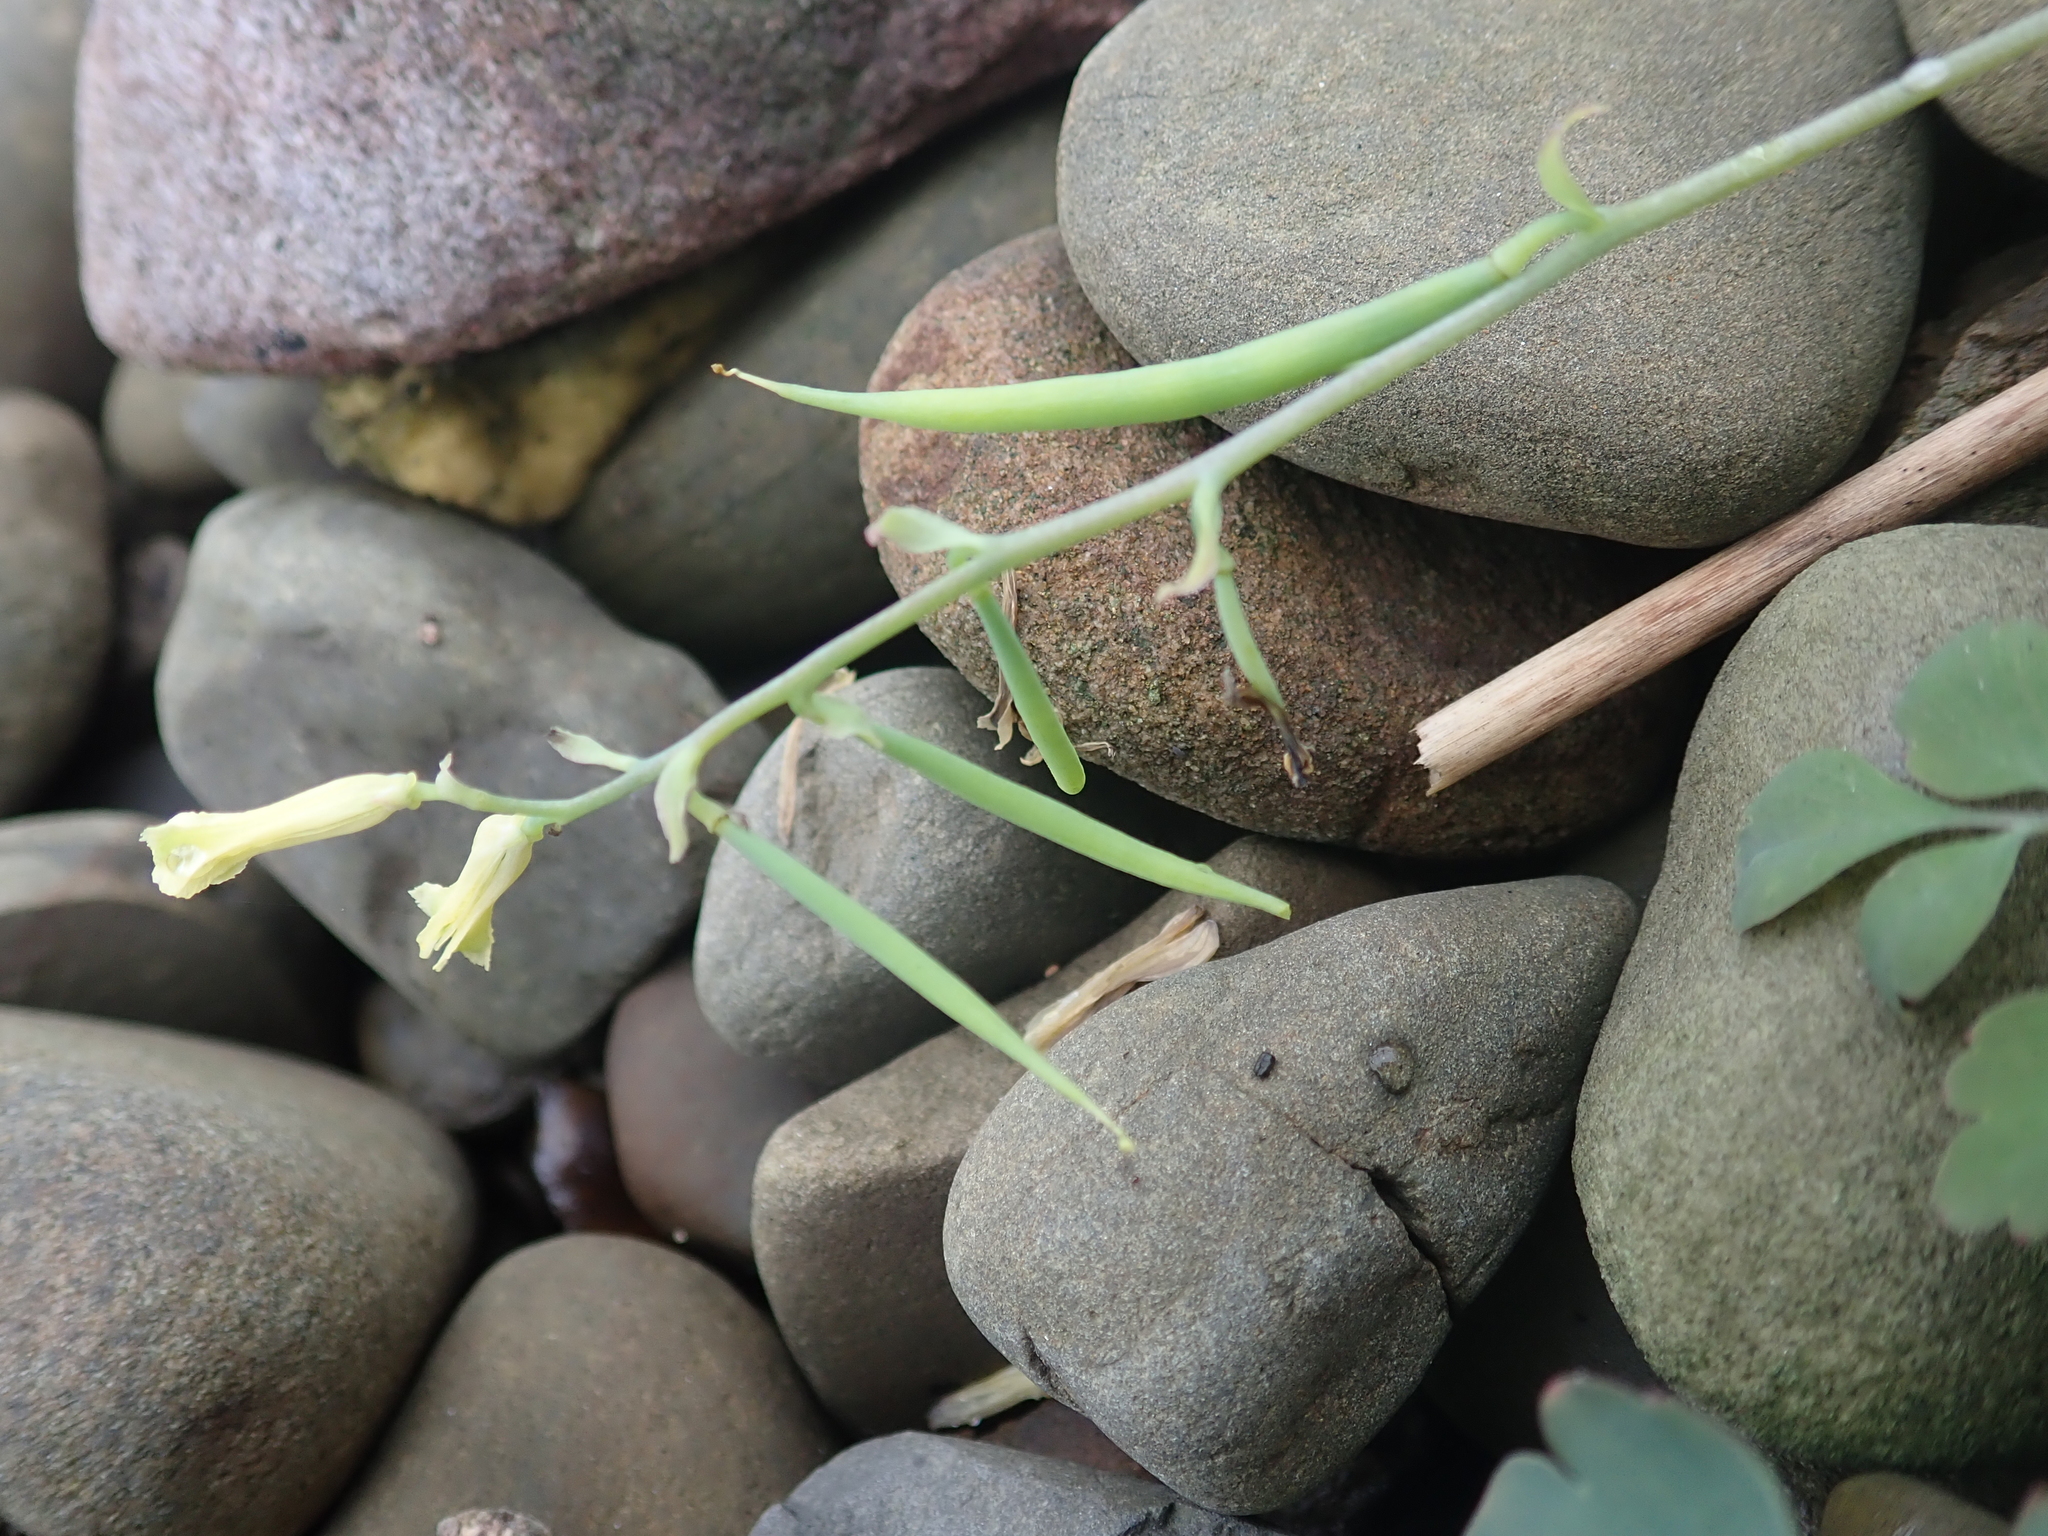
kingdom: Plantae
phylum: Tracheophyta
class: Magnoliopsida
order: Ranunculales
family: Papaveraceae
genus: Corydalis
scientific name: Corydalis balansae
